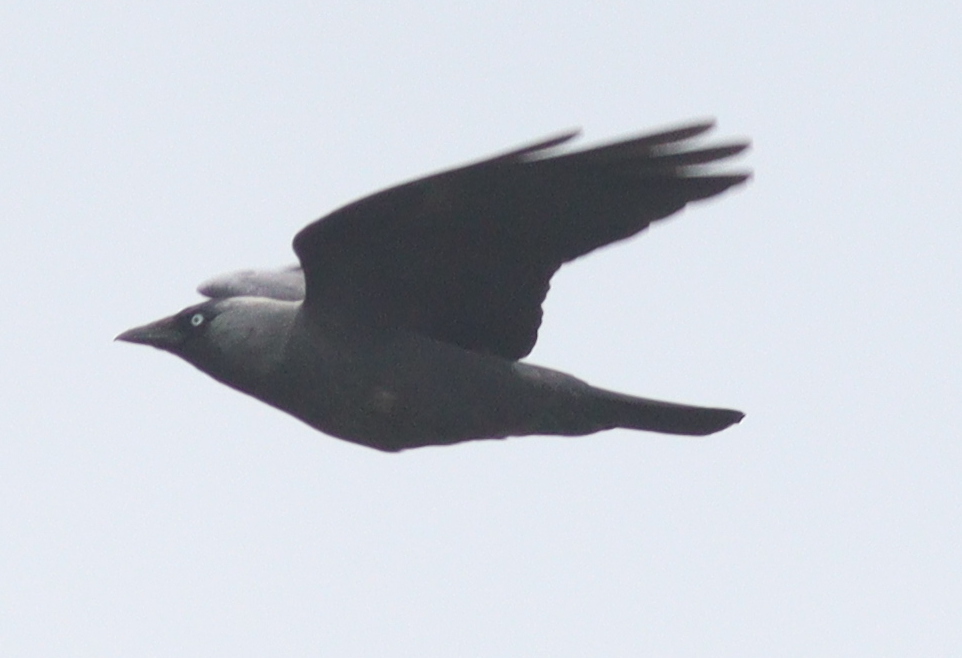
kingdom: Animalia
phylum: Chordata
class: Aves
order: Passeriformes
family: Corvidae
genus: Coloeus
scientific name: Coloeus monedula
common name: Western jackdaw
